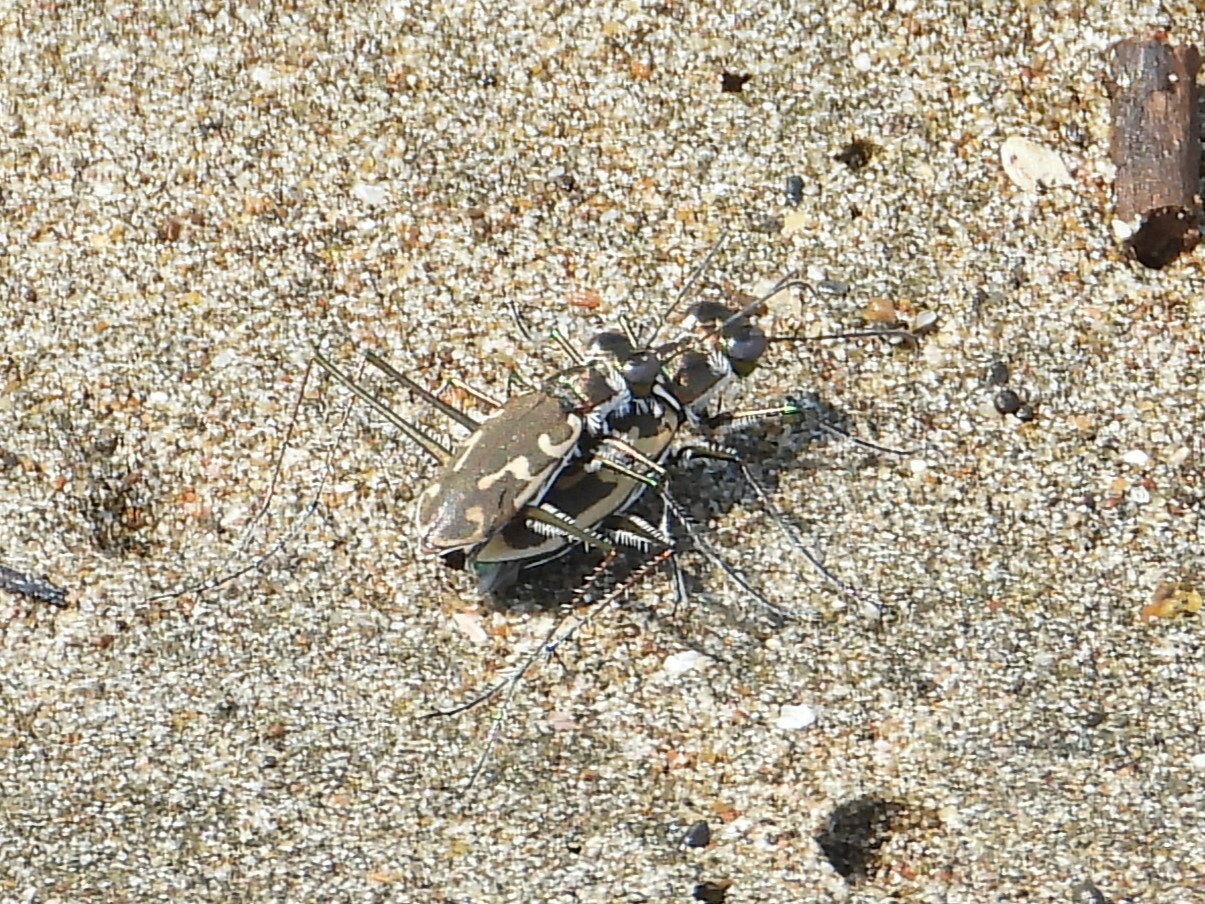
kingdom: Animalia
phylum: Arthropoda
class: Insecta
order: Coleoptera
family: Carabidae
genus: Opilidia
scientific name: Opilidia macrocnema
